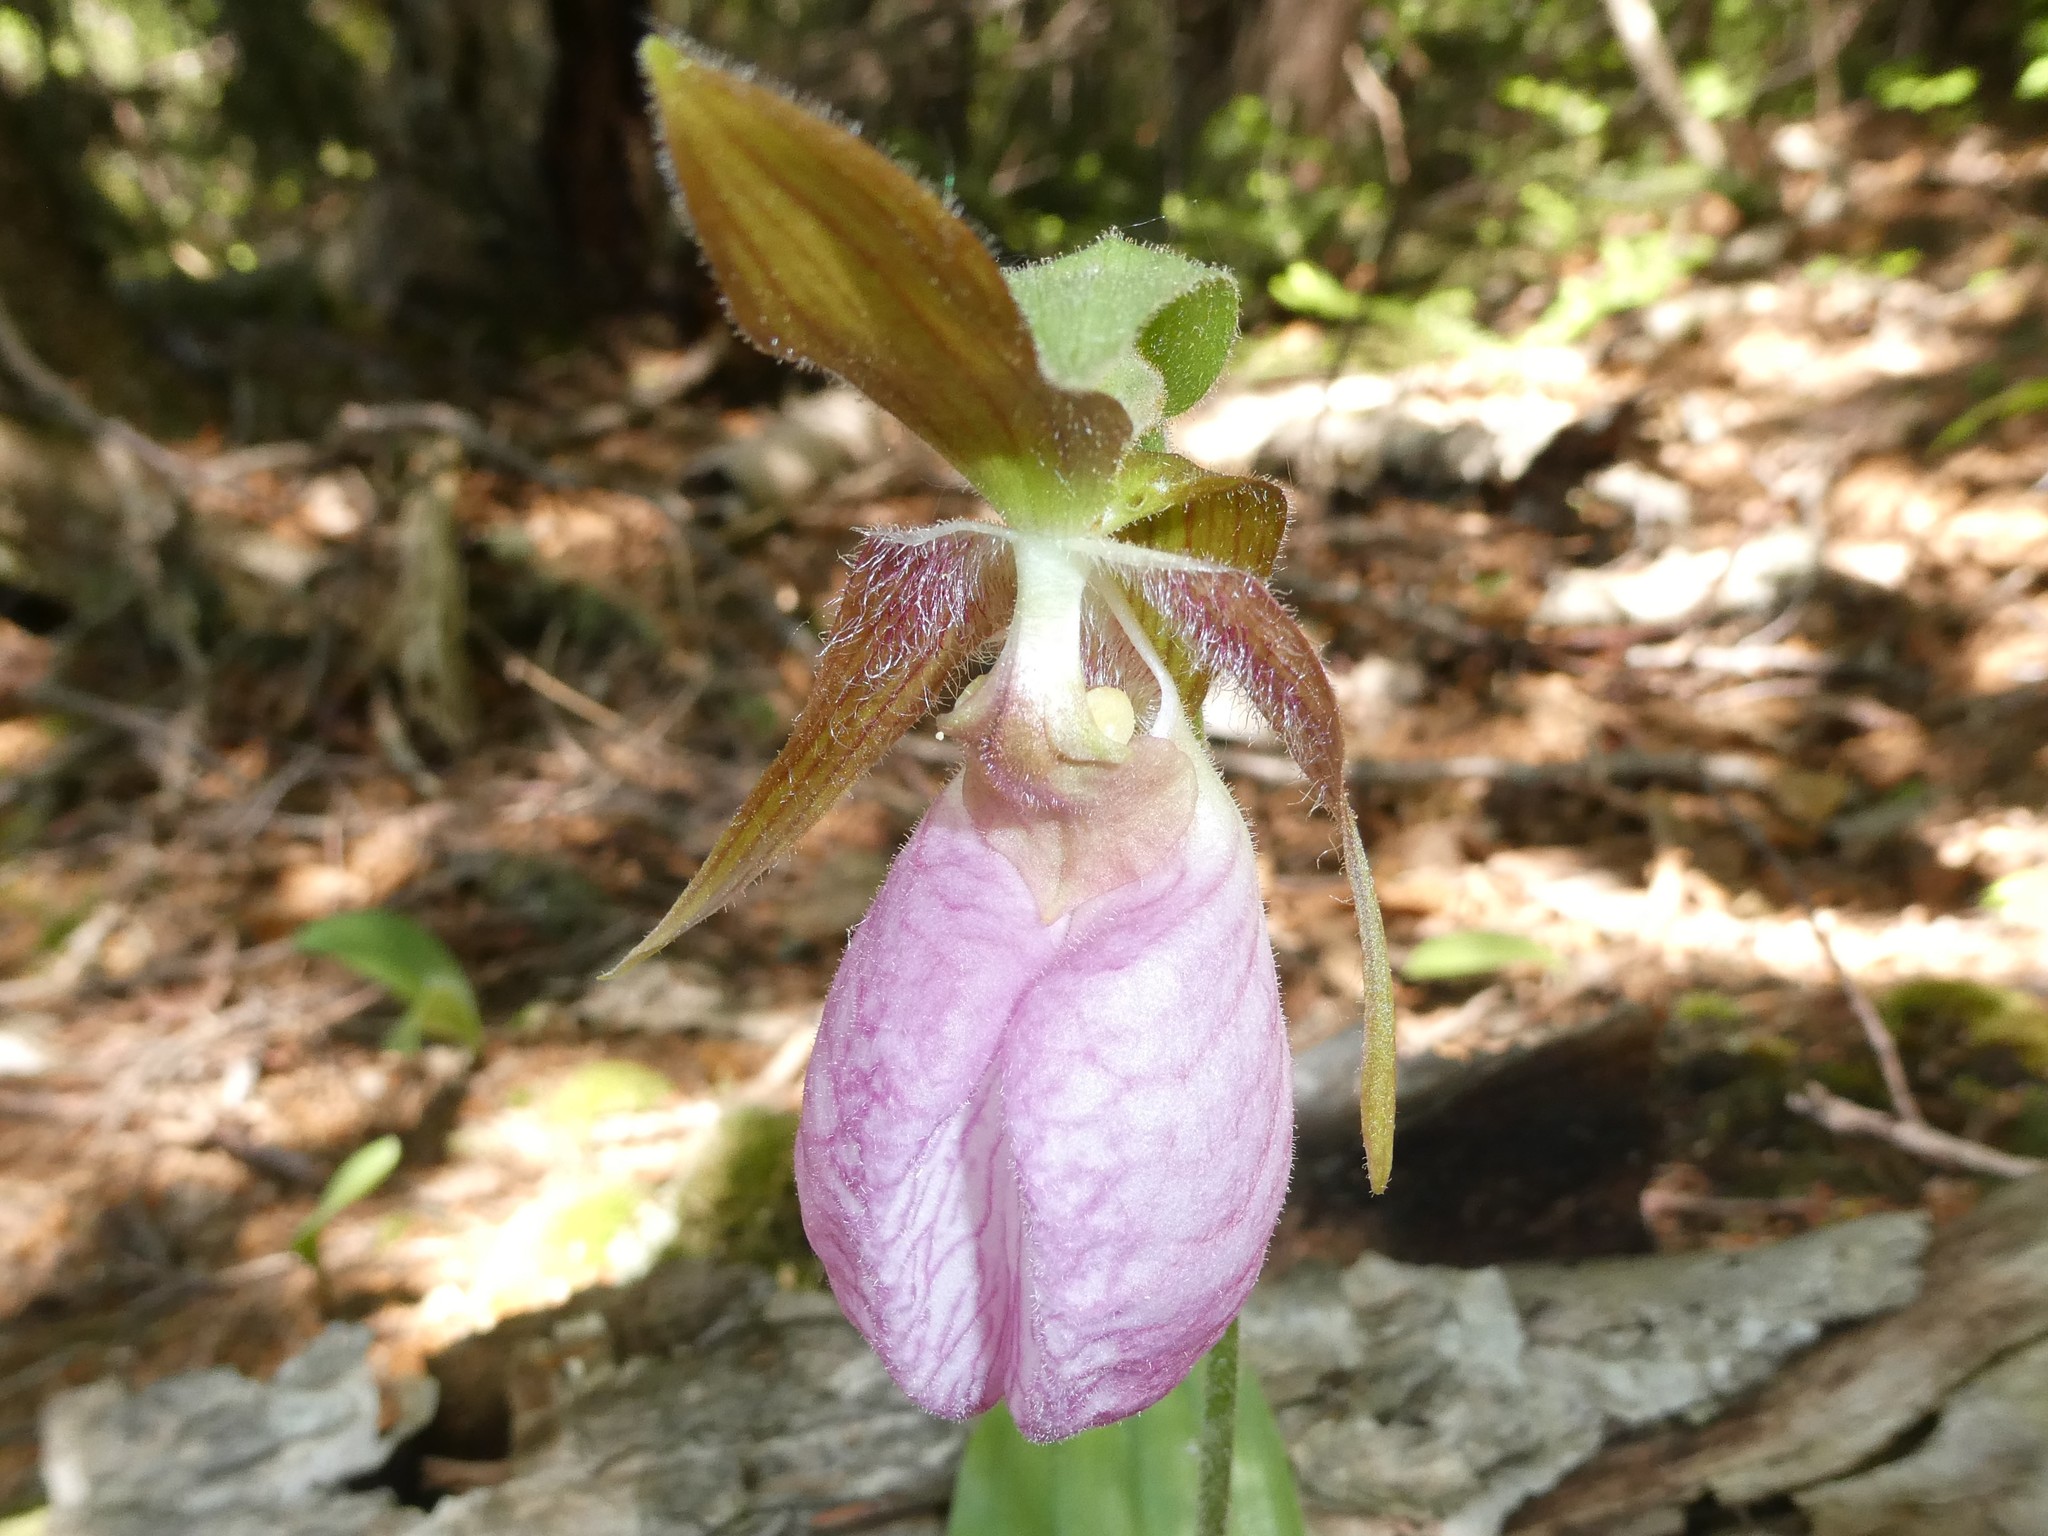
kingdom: Plantae
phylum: Tracheophyta
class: Liliopsida
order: Asparagales
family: Orchidaceae
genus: Cypripedium
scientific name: Cypripedium acaule
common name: Pink lady's-slipper
